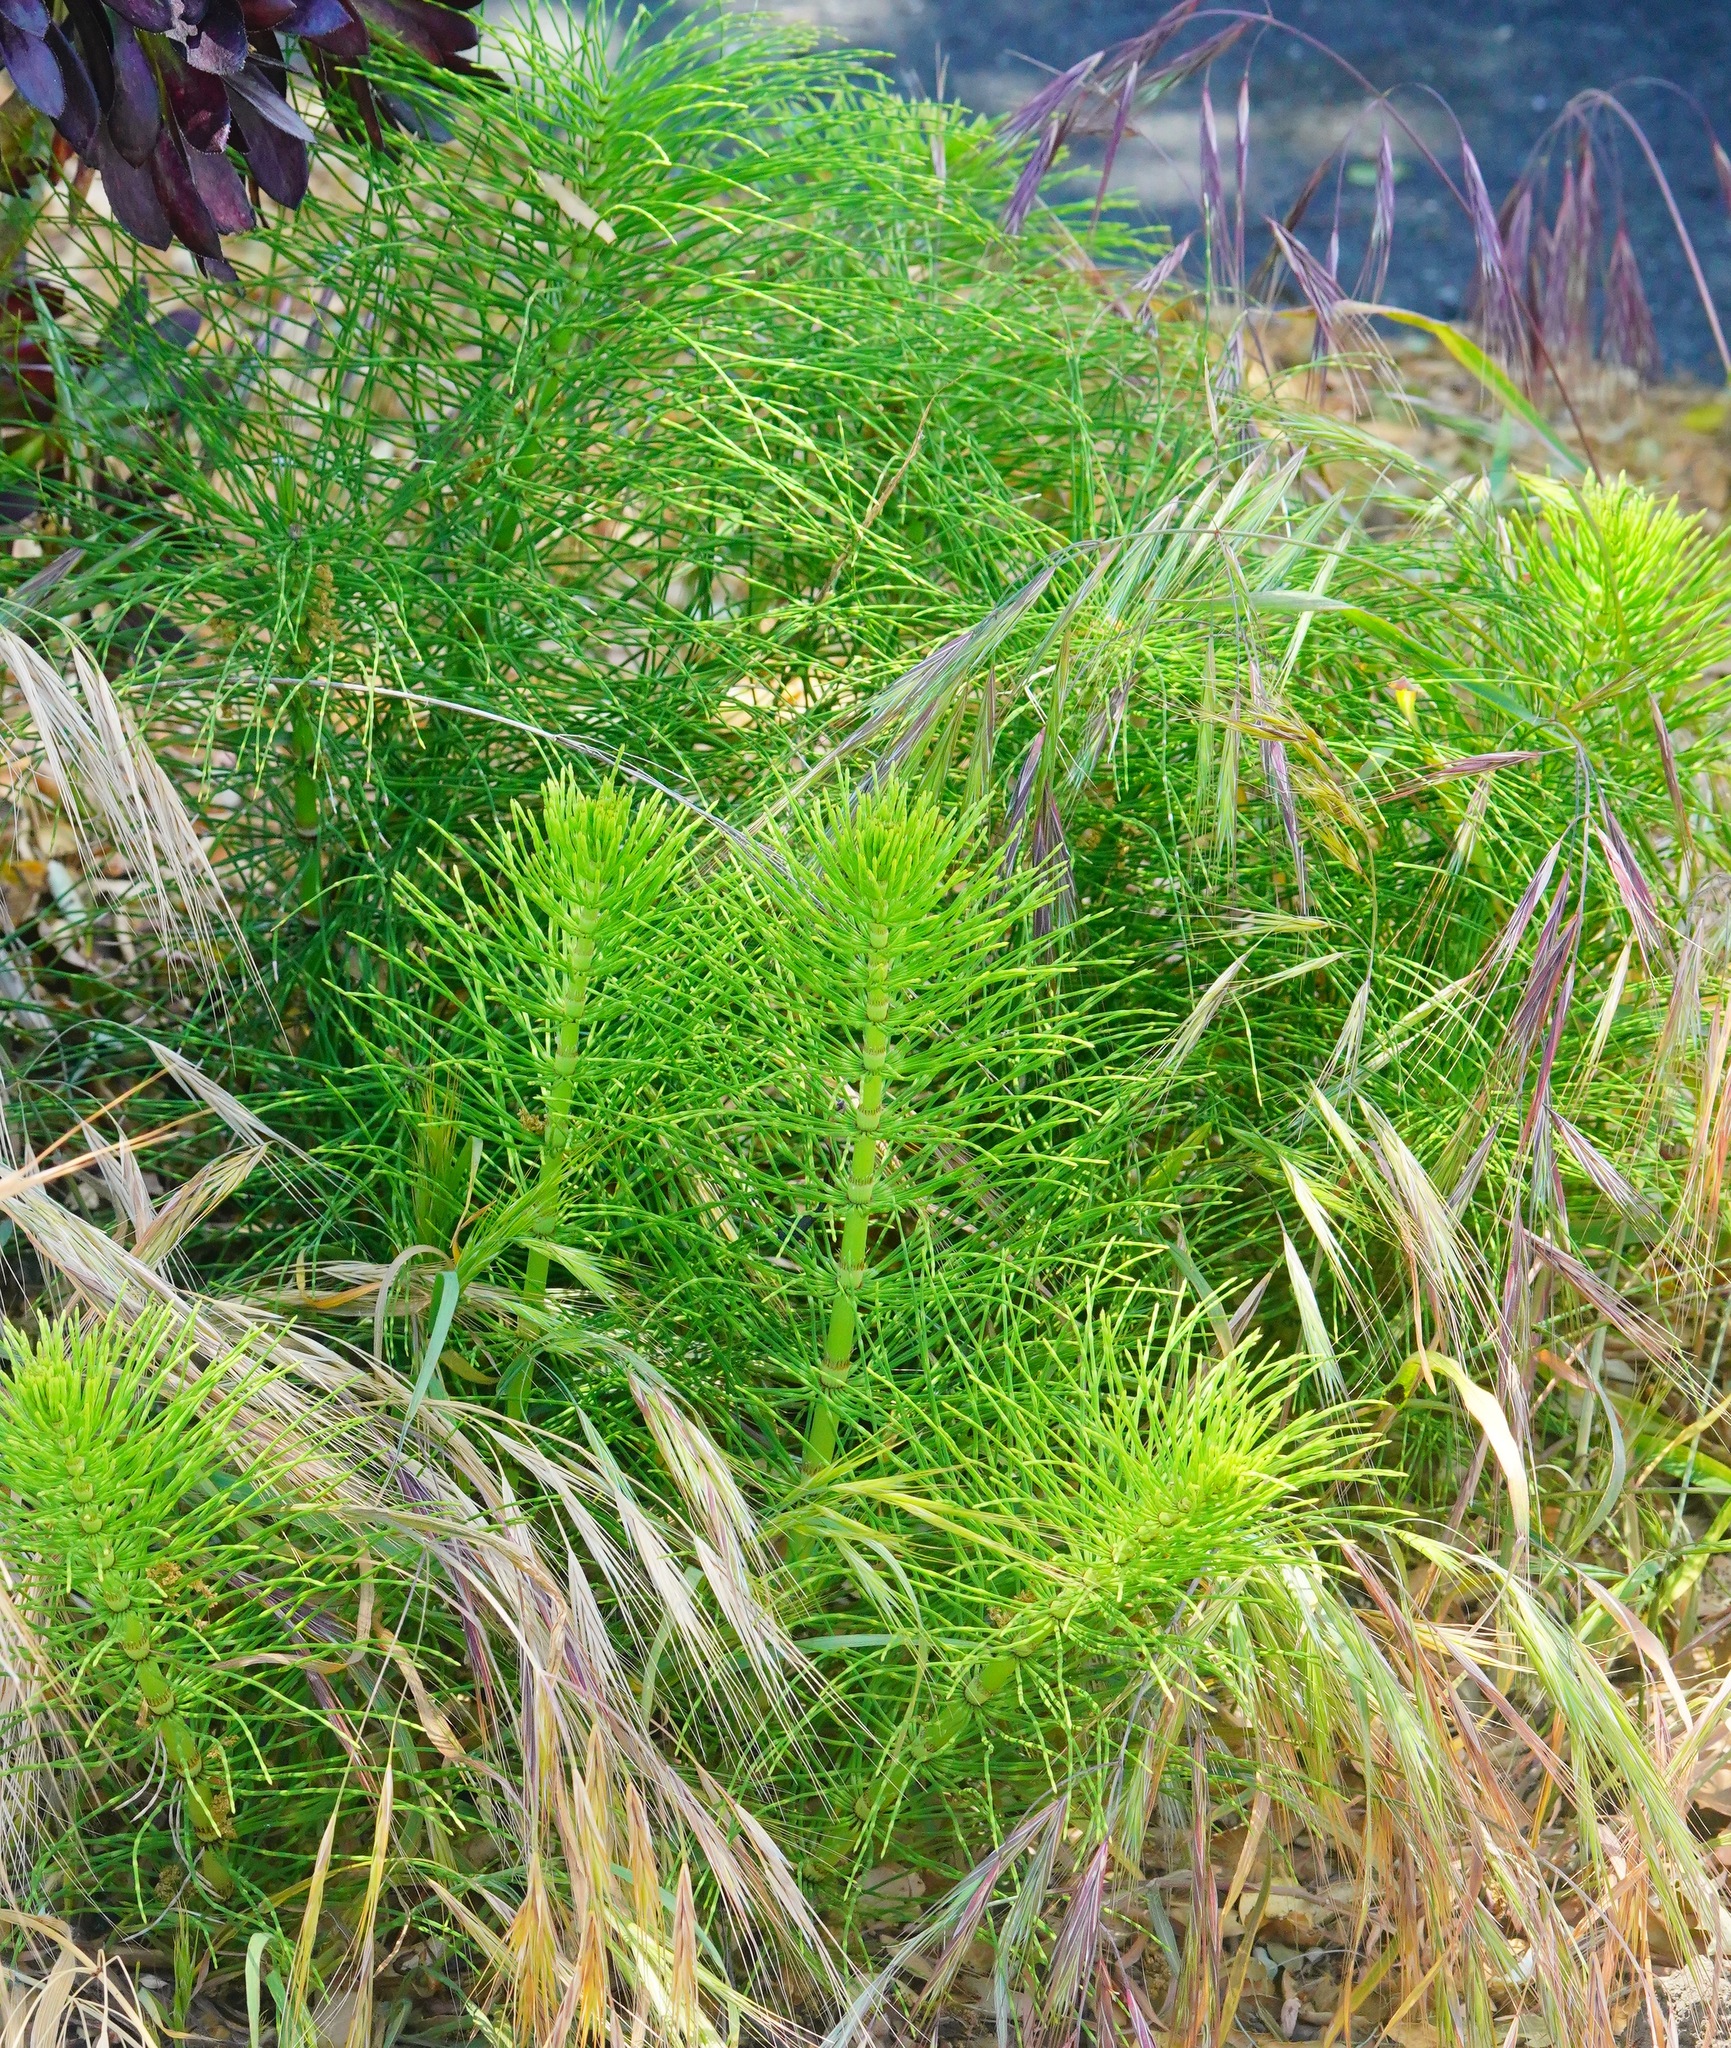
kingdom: Plantae
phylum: Tracheophyta
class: Polypodiopsida
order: Equisetales
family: Equisetaceae
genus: Equisetum
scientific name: Equisetum braunii
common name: Braun's horsetail
